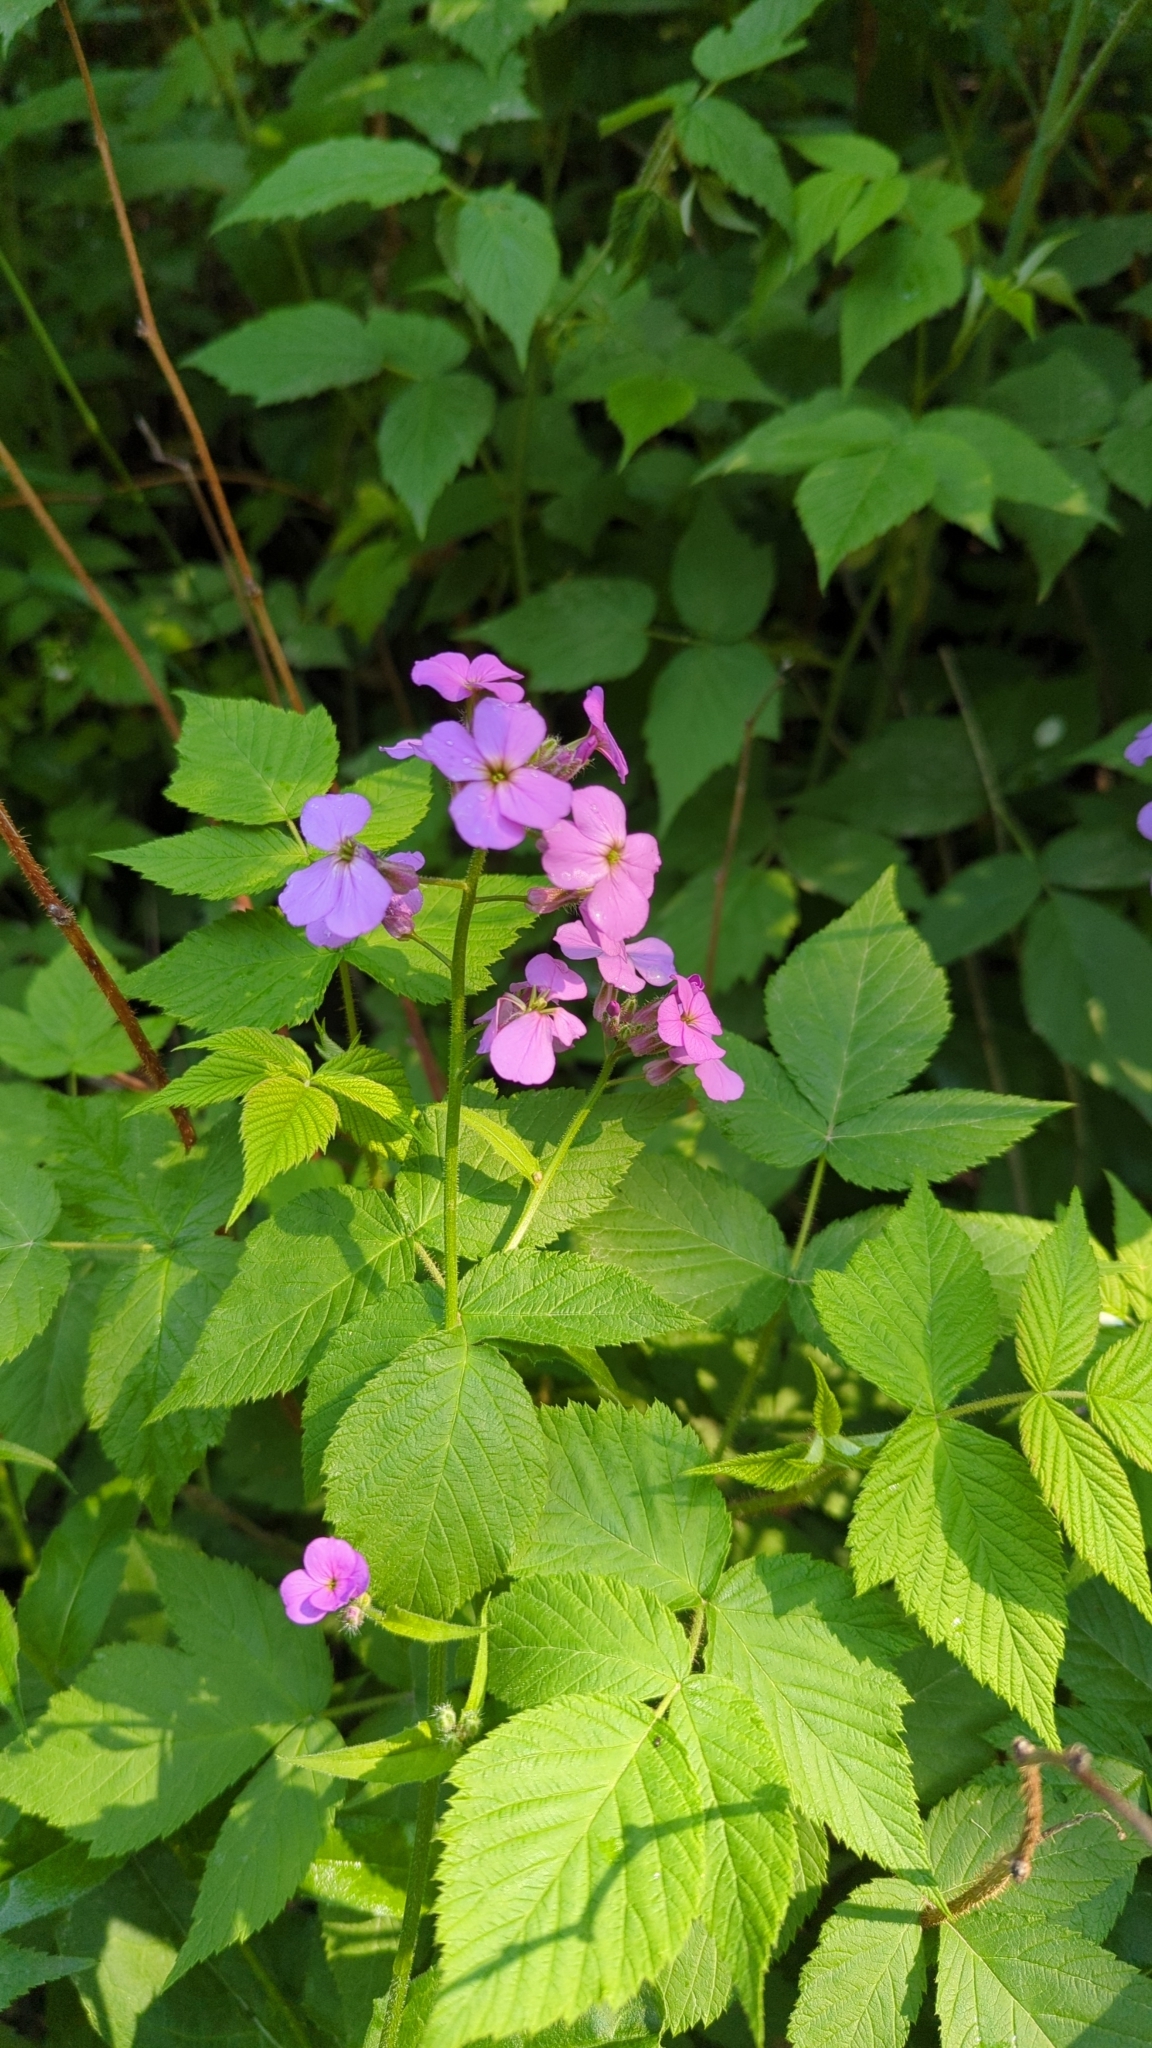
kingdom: Plantae
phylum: Tracheophyta
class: Magnoliopsida
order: Brassicales
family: Brassicaceae
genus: Hesperis
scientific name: Hesperis matronalis
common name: Dame's-violet
